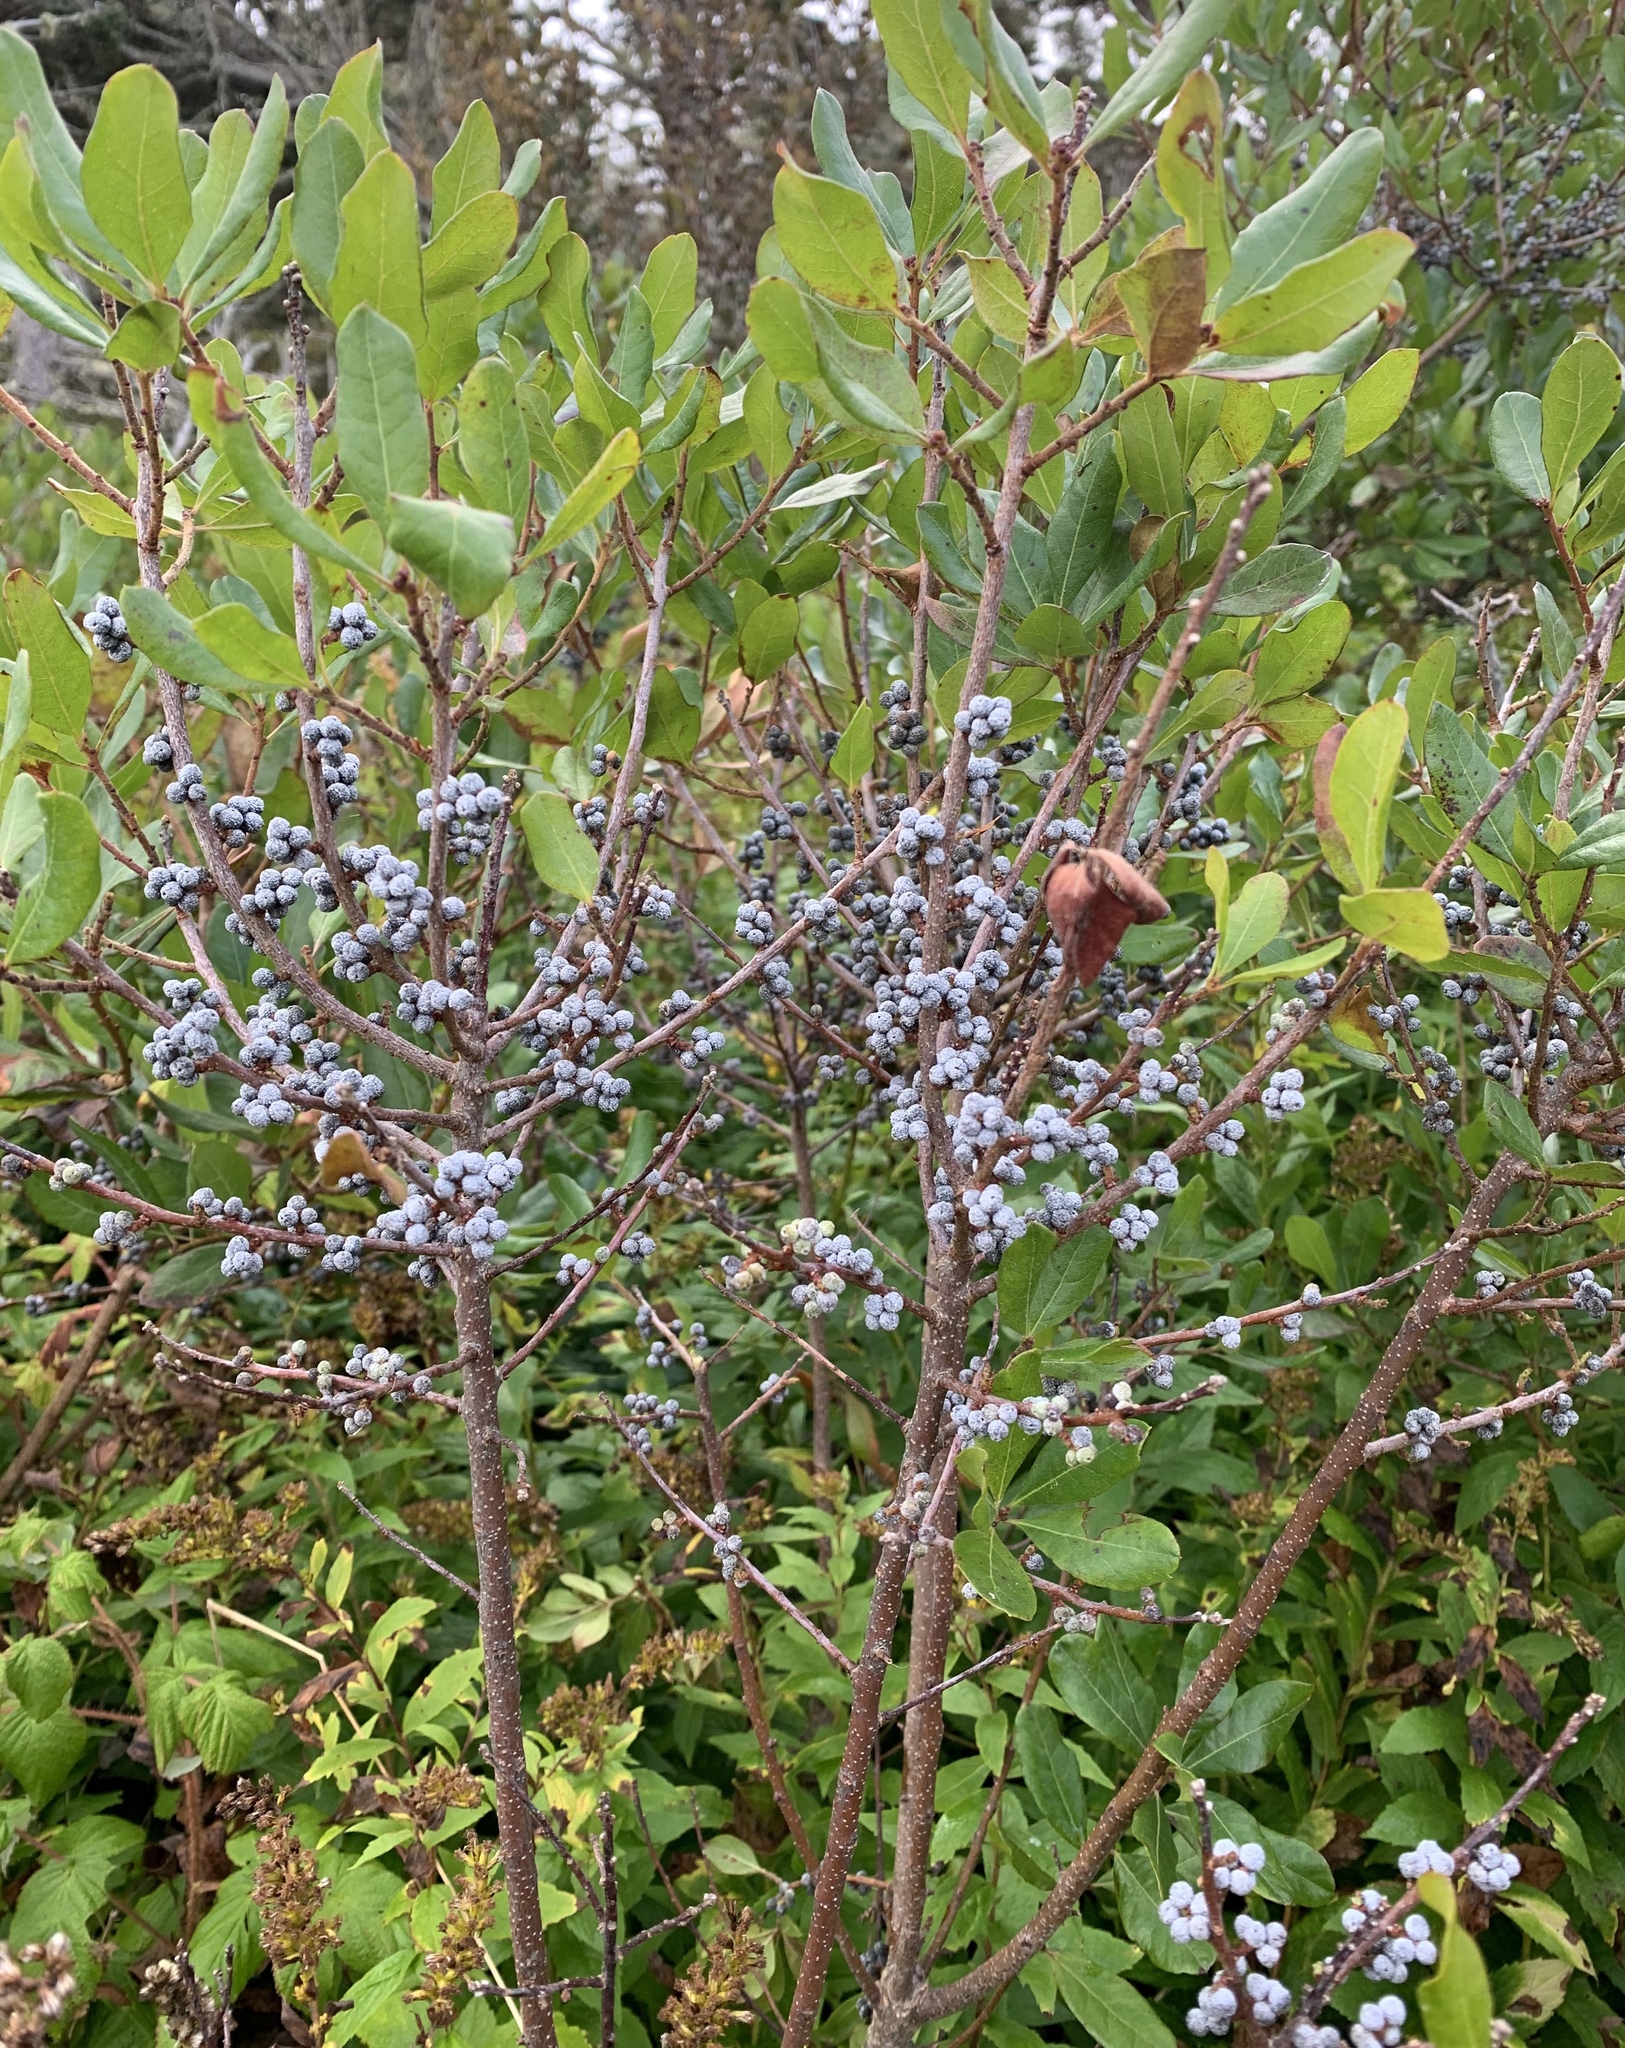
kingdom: Plantae
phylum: Tracheophyta
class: Magnoliopsida
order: Fagales
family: Myricaceae
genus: Morella
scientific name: Morella pensylvanica
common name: Northern bayberry
